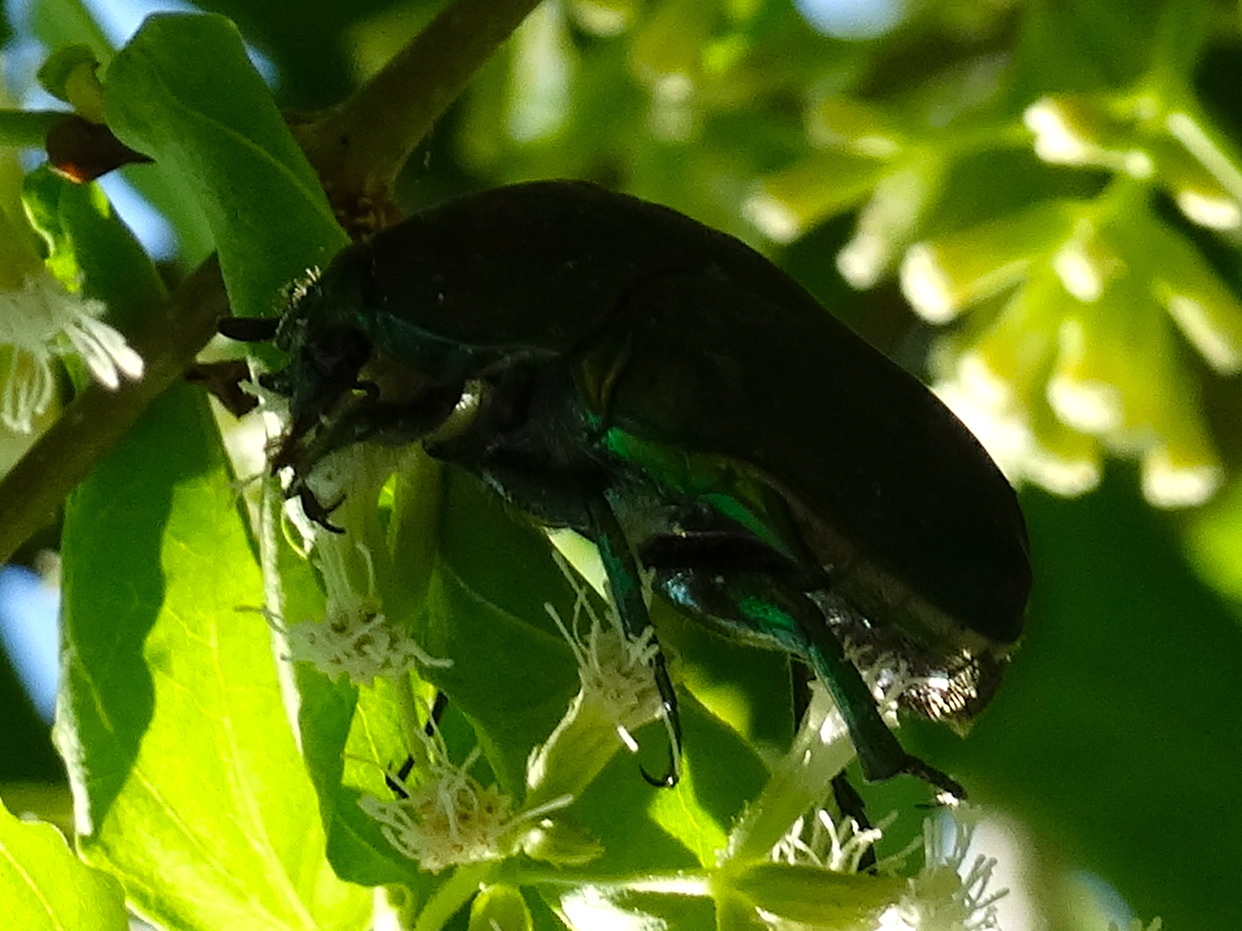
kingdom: Animalia
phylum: Arthropoda
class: Insecta
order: Coleoptera
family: Scarabaeidae
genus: Cotinis
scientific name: Cotinis
